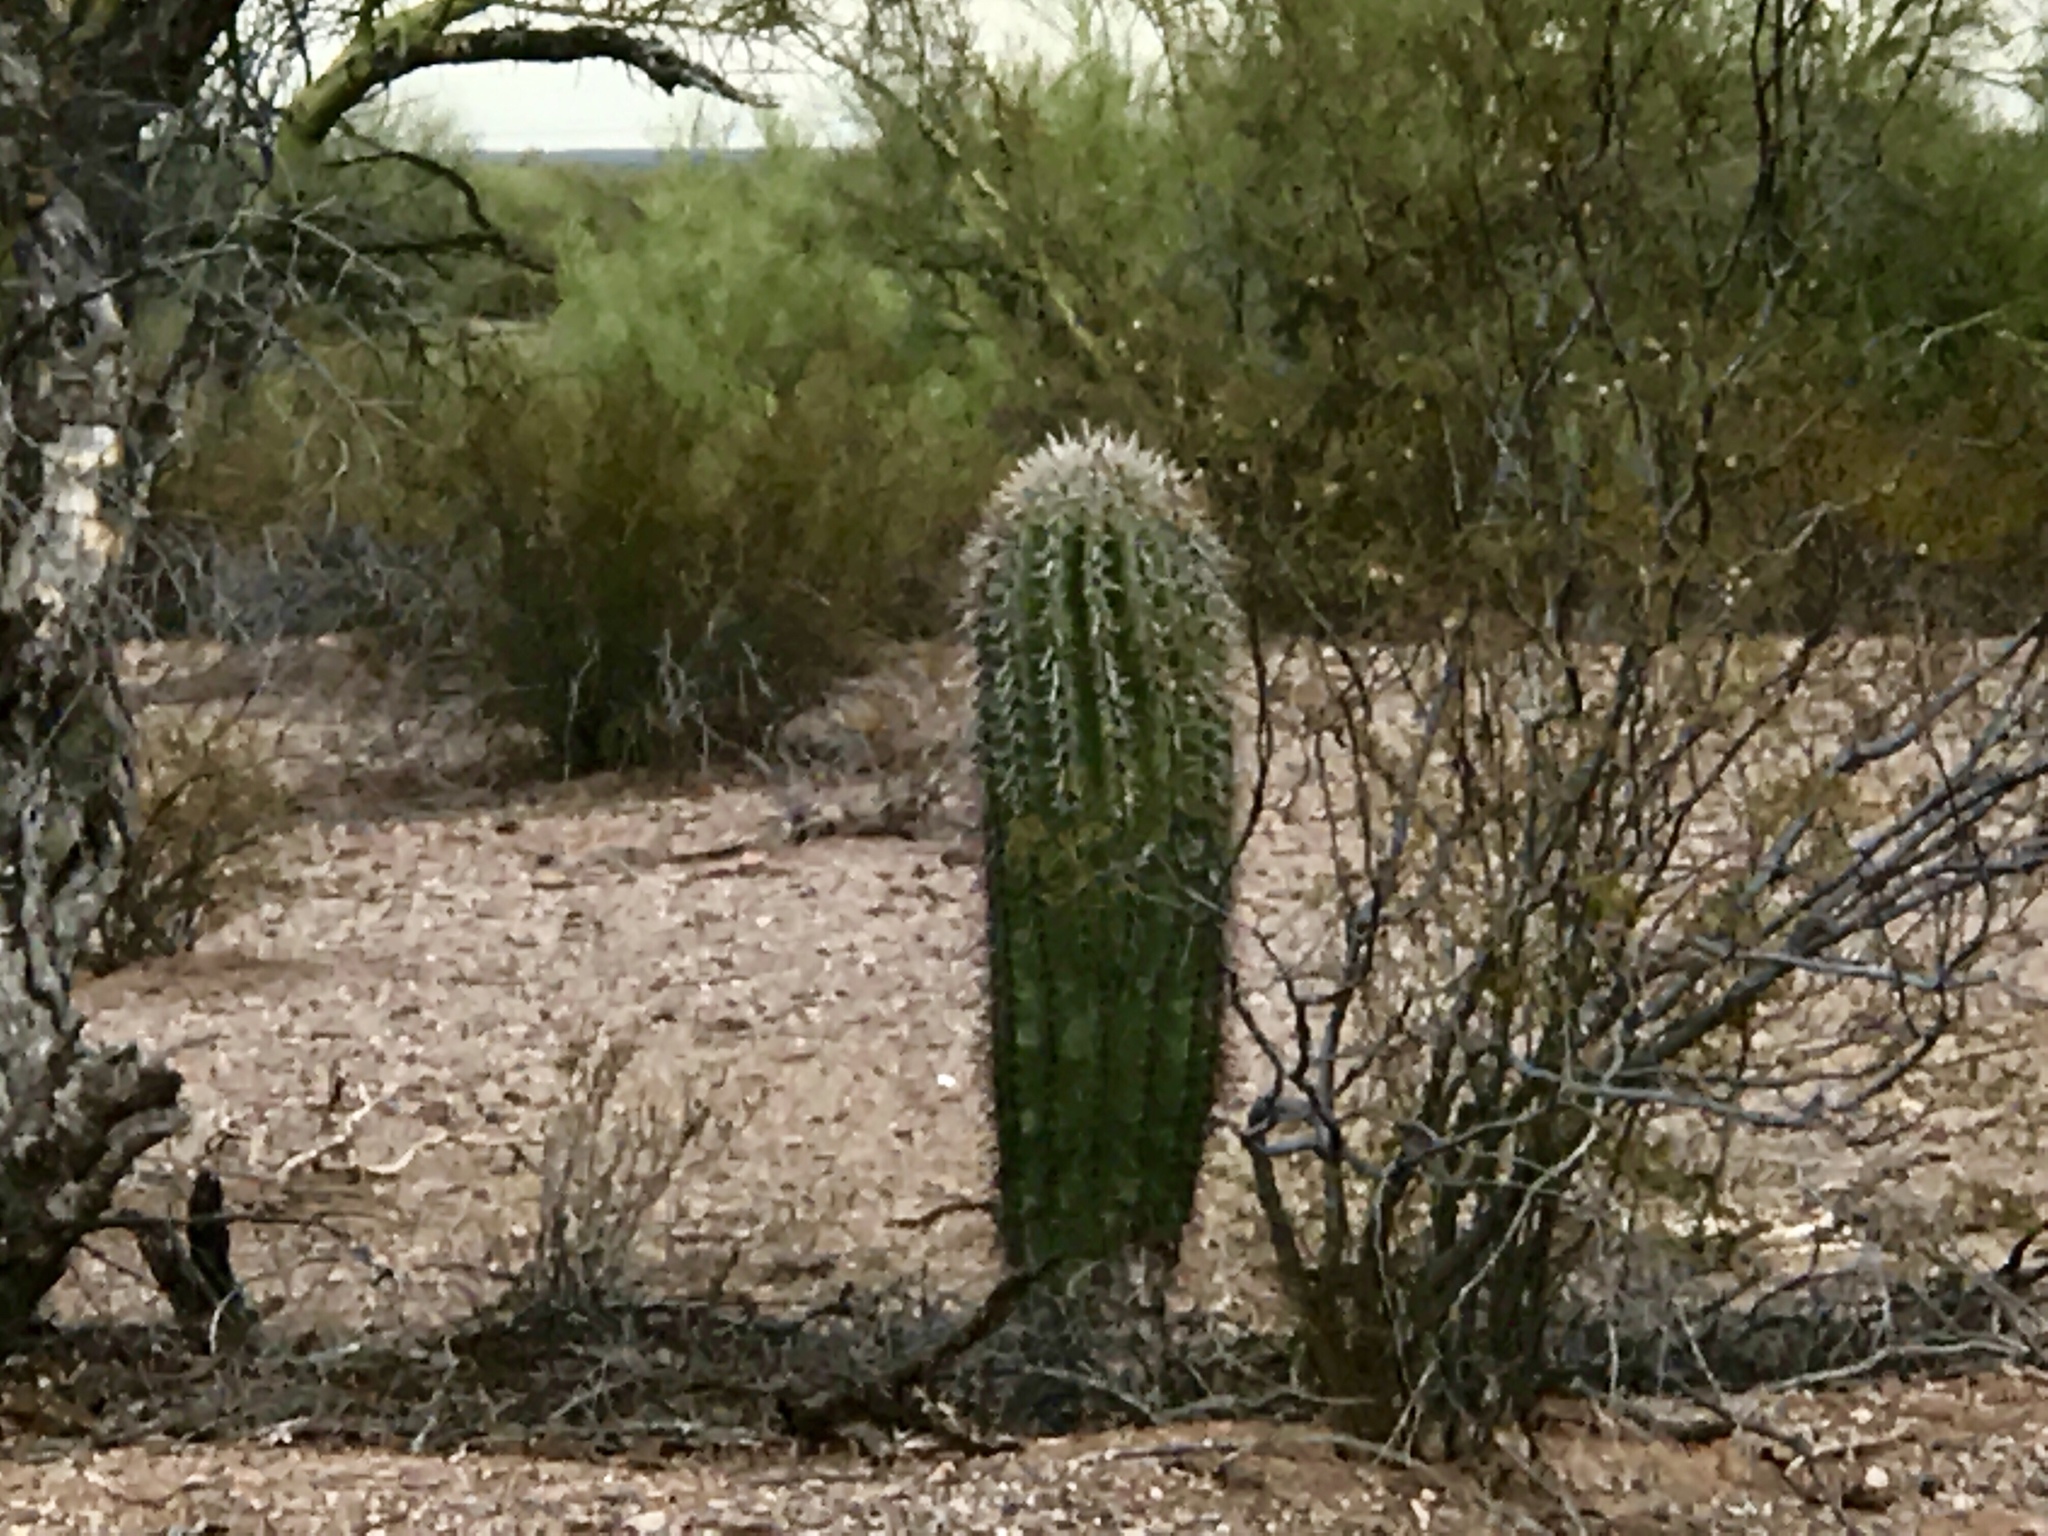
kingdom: Plantae
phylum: Tracheophyta
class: Magnoliopsida
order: Caryophyllales
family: Cactaceae
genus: Carnegiea
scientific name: Carnegiea gigantea
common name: Saguaro
